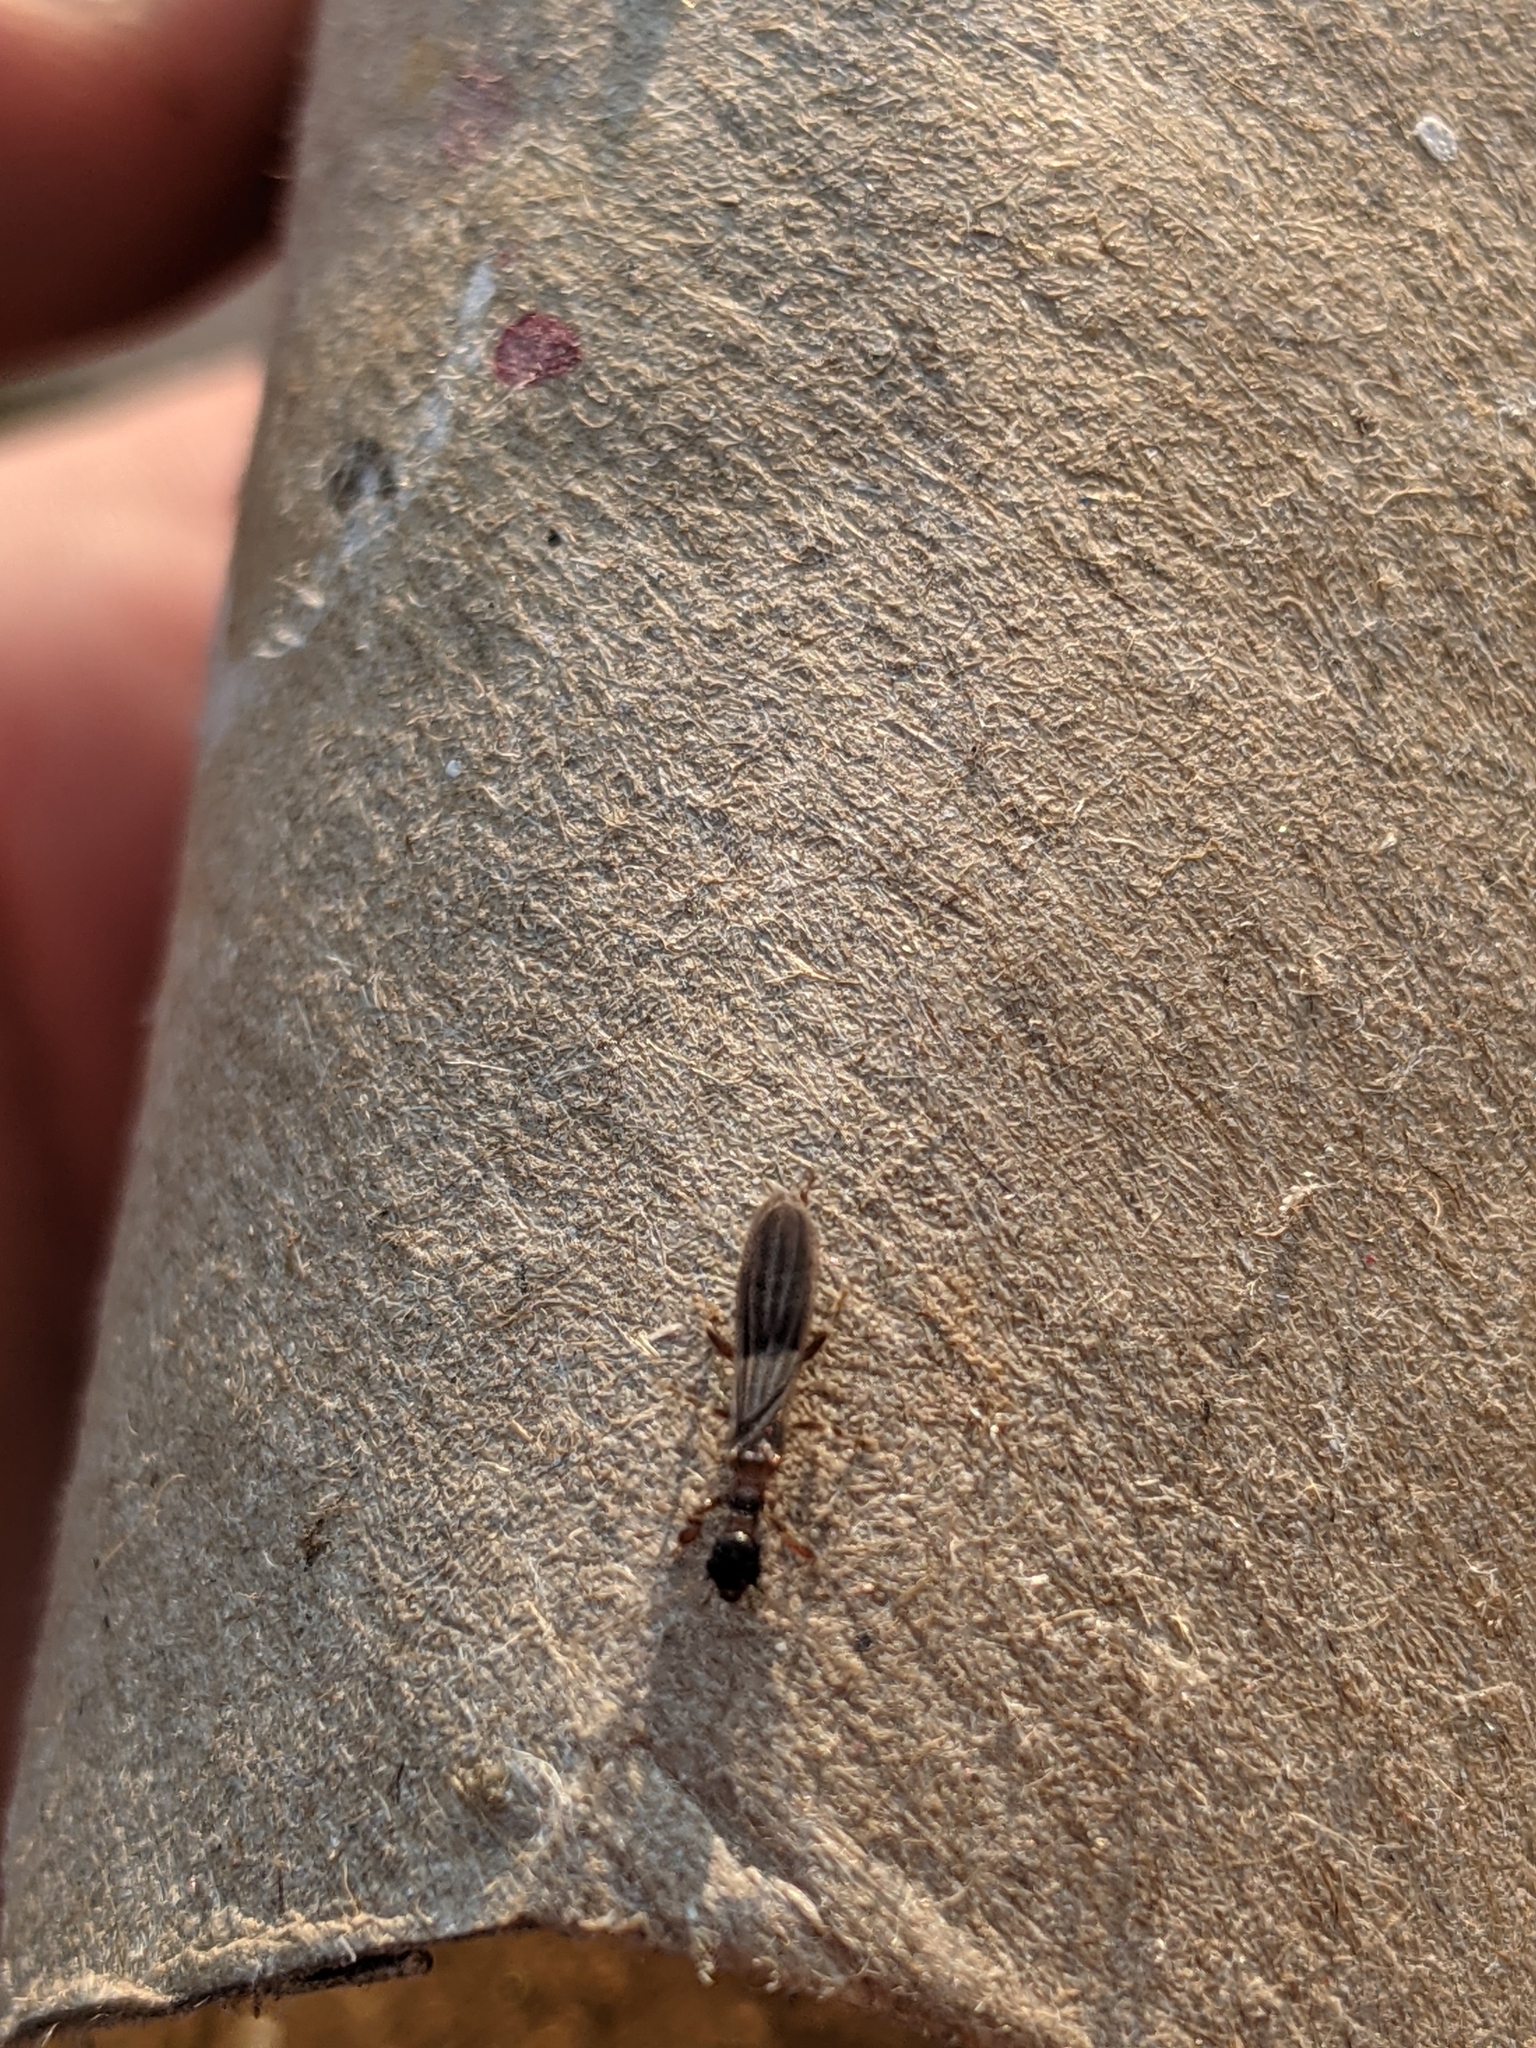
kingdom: Animalia
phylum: Arthropoda
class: Insecta
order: Embioptera
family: Oligotomidae
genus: Oligotoma
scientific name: Oligotoma nigra
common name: Black webspinner
